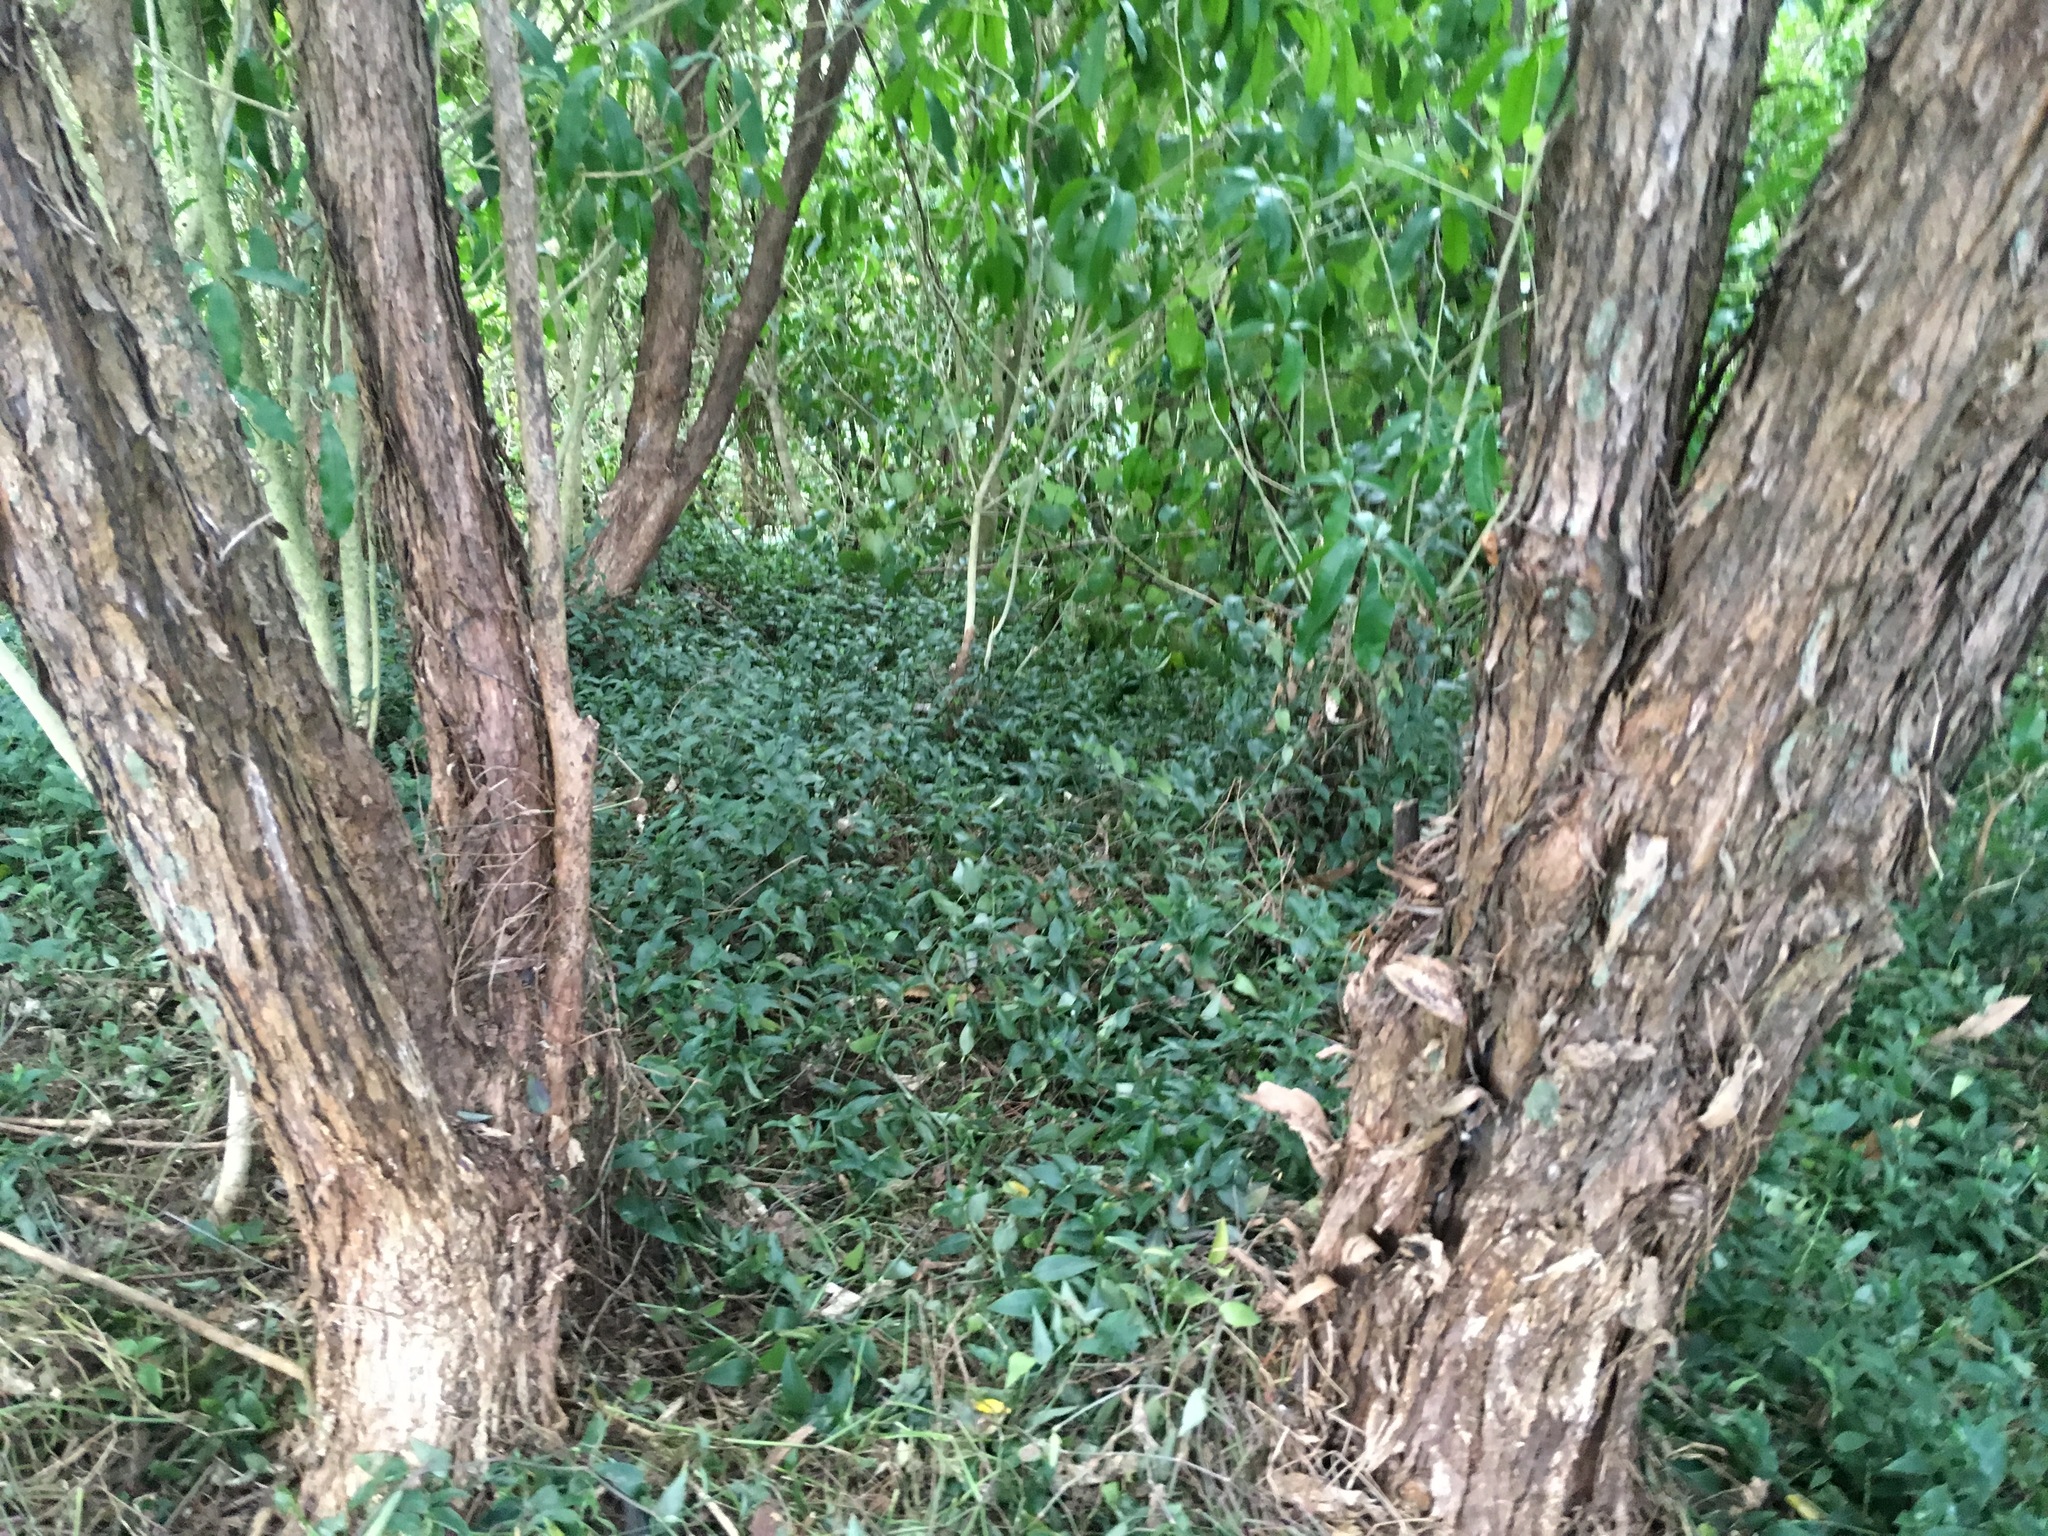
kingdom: Plantae
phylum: Tracheophyta
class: Liliopsida
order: Commelinales
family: Commelinaceae
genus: Tradescantia
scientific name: Tradescantia fluminensis
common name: Wandering-jew
